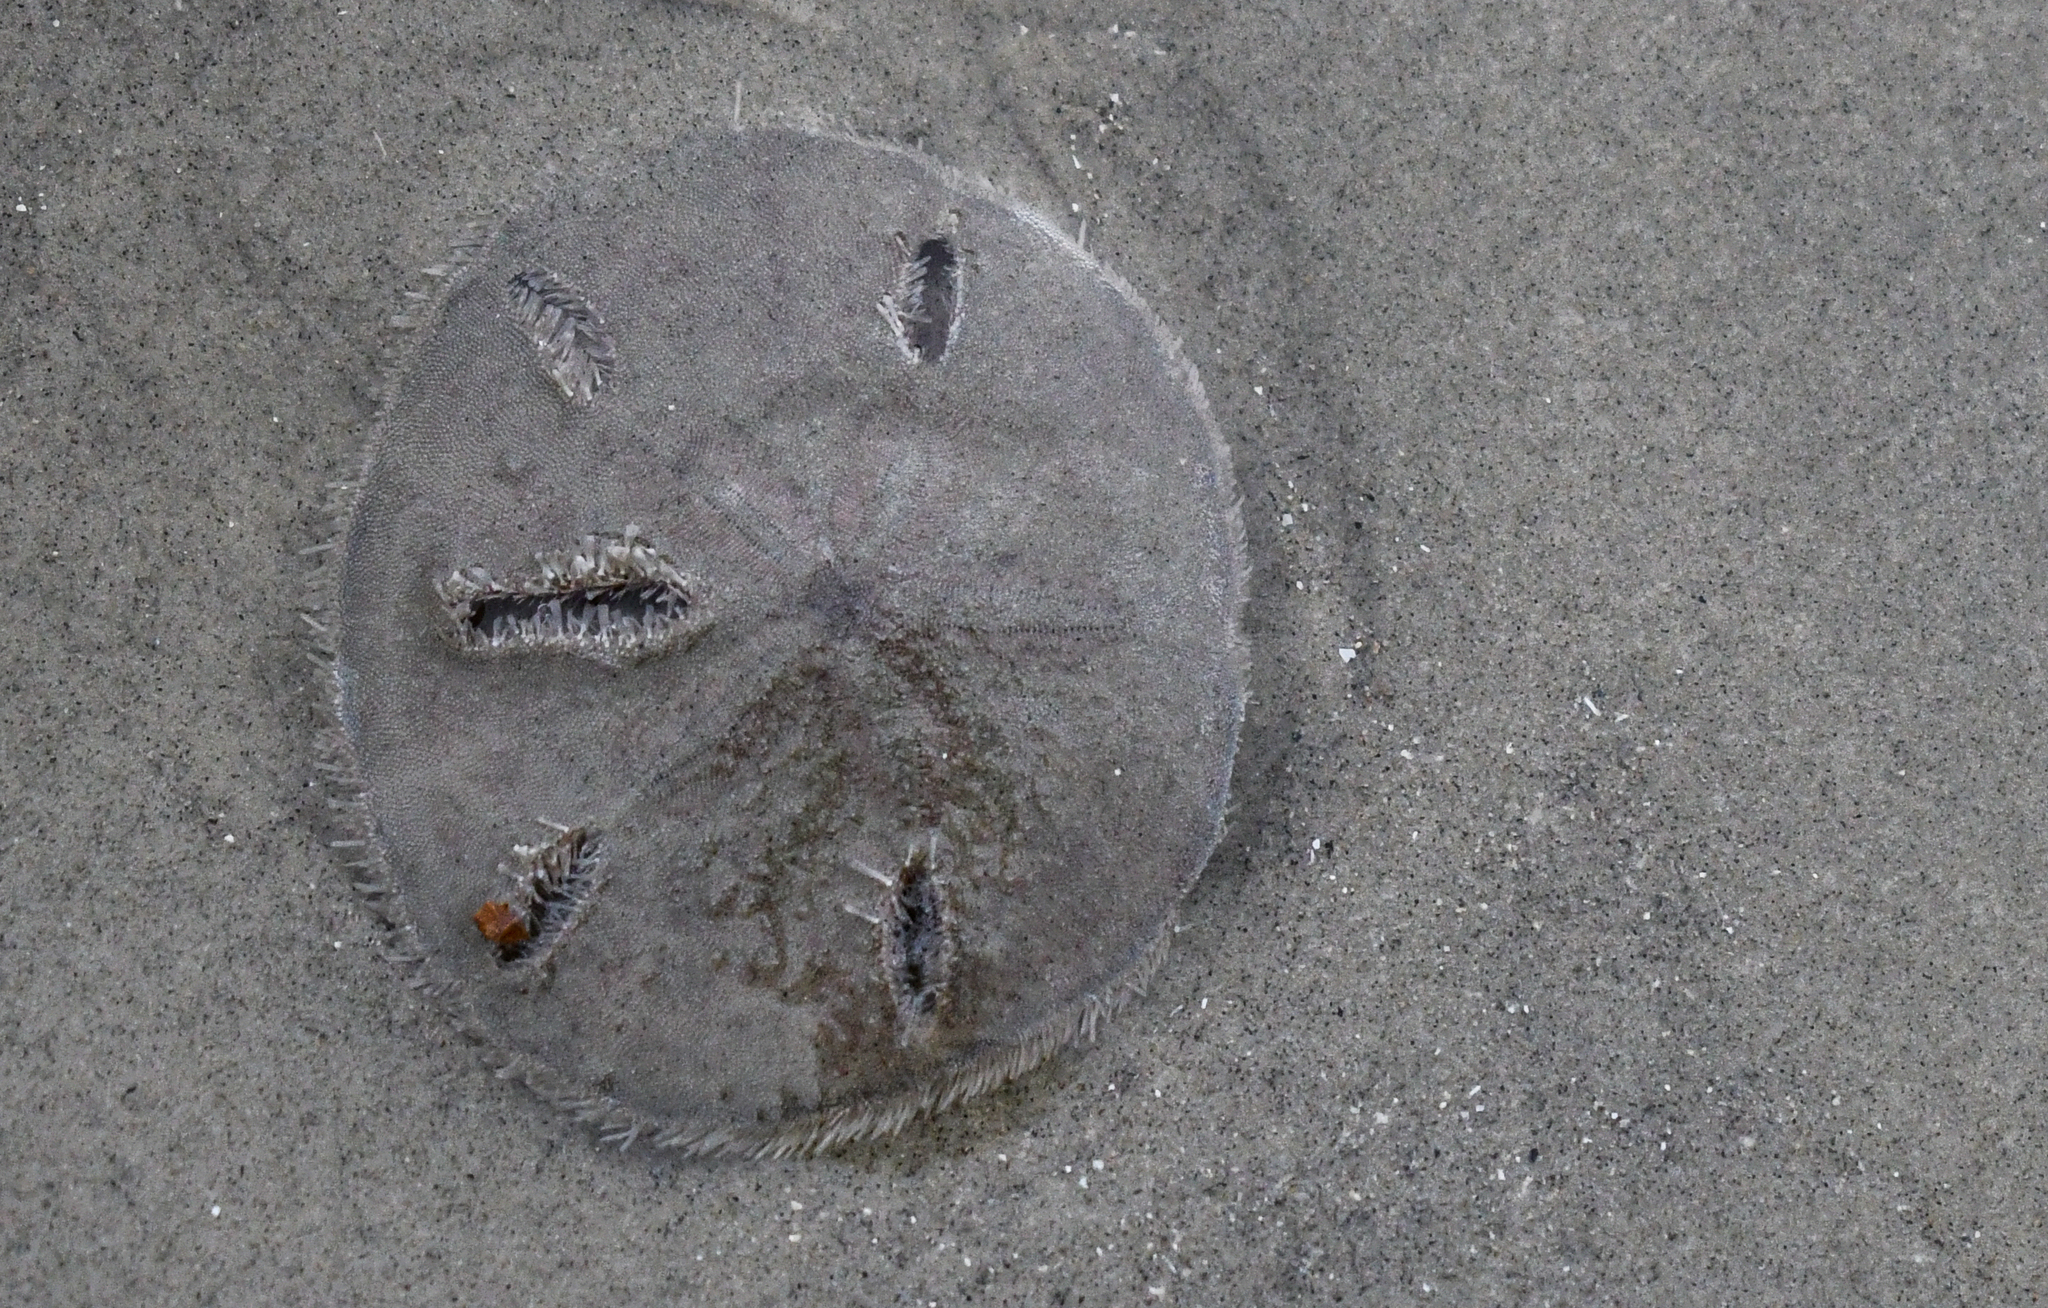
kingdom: Animalia
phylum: Echinodermata
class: Echinoidea
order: Echinolampadacea
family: Mellitidae
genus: Mellita
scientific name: Mellita quinquiesperforata
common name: Sand dollar
